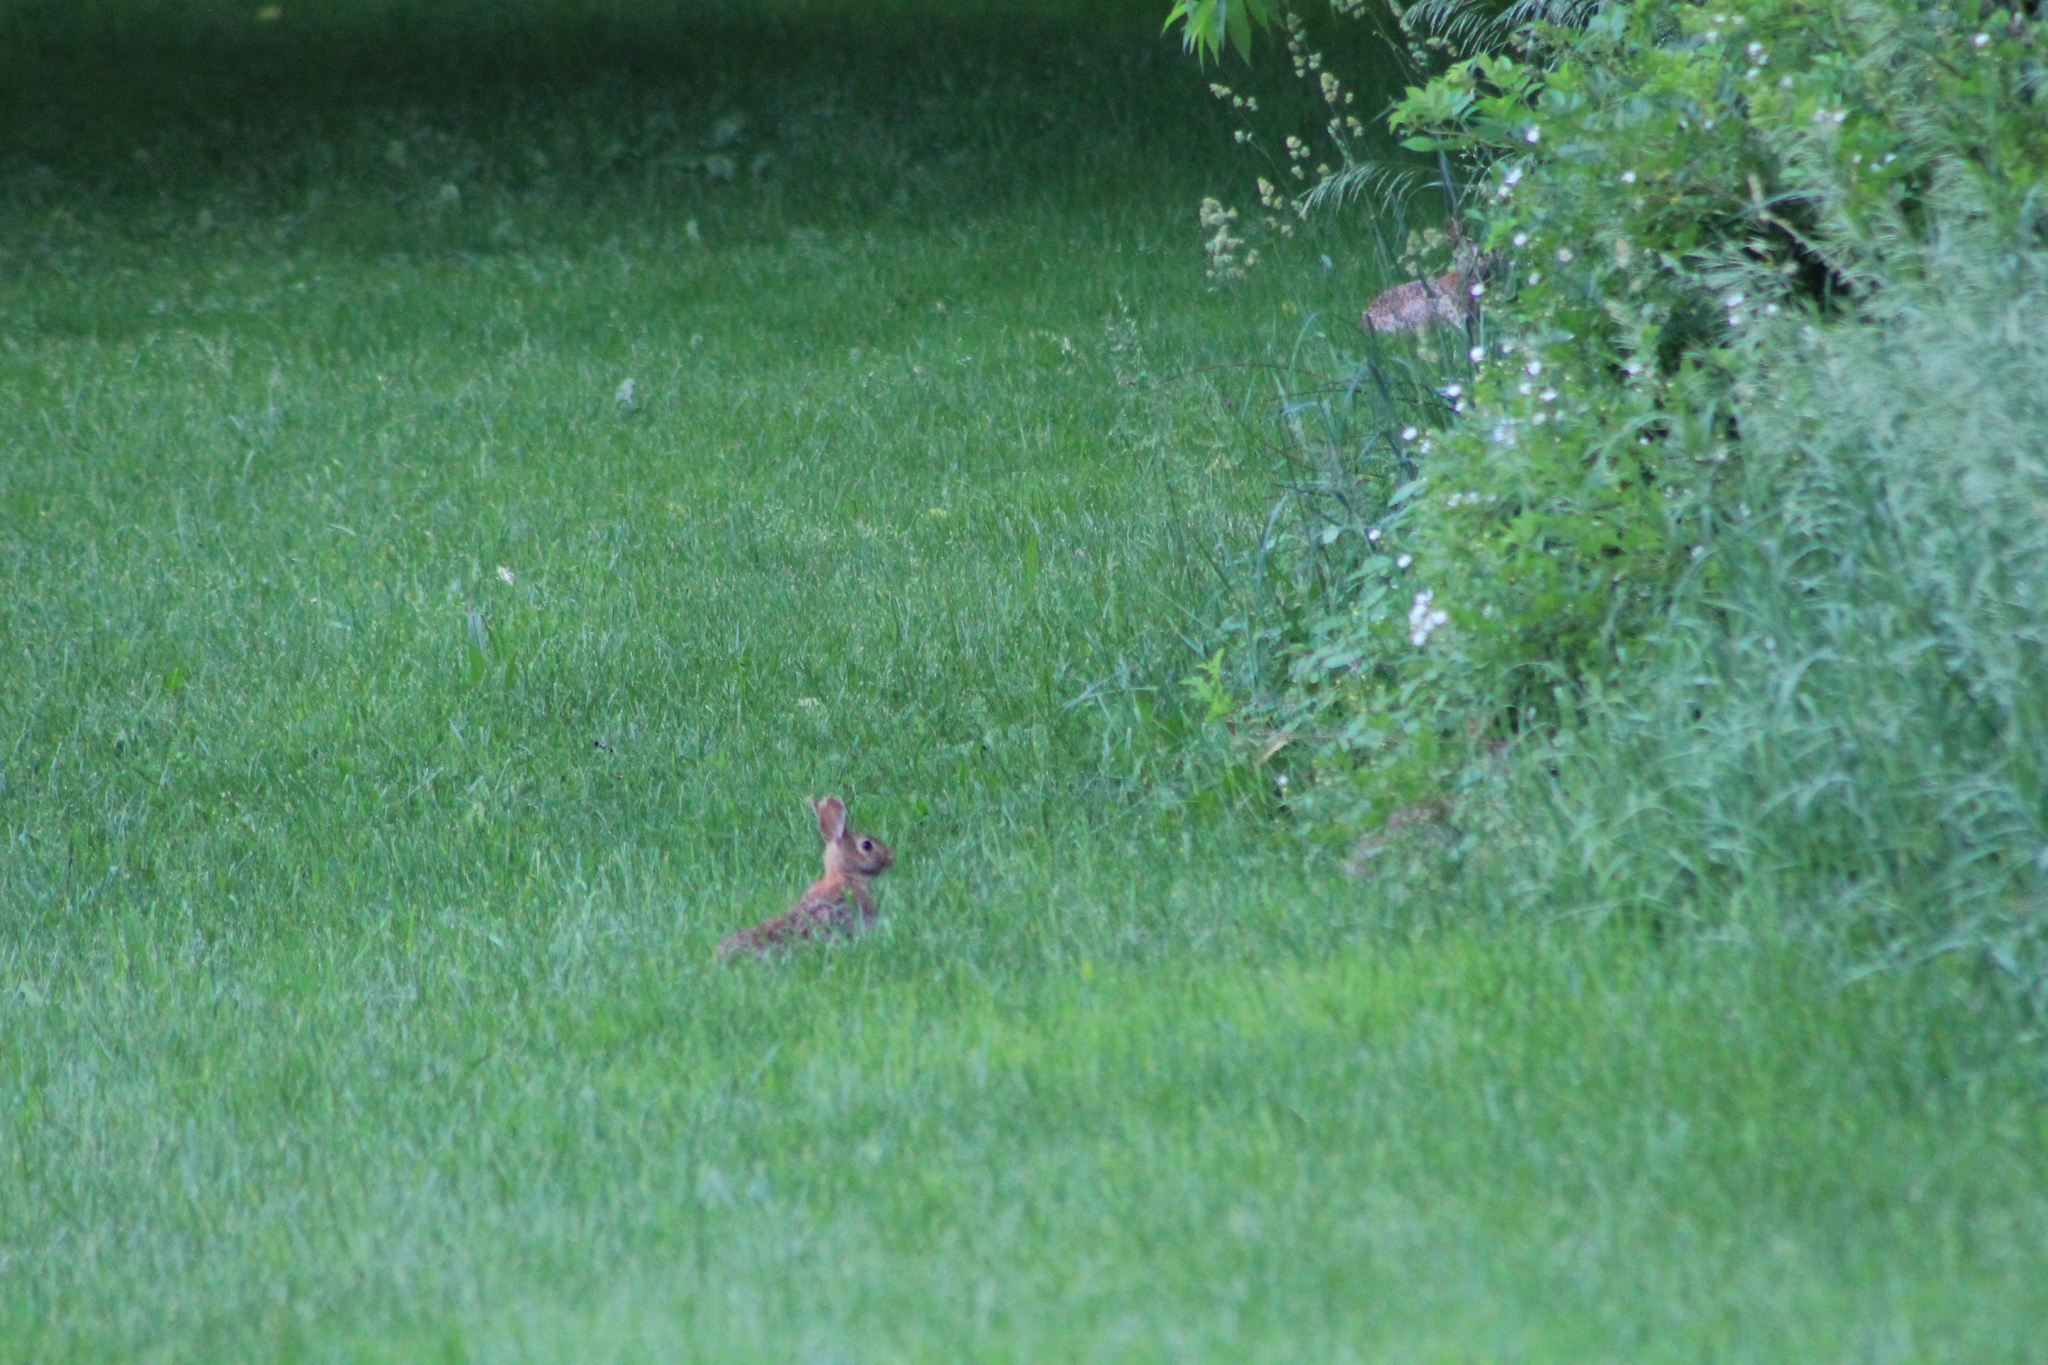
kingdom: Animalia
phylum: Chordata
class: Mammalia
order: Lagomorpha
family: Leporidae
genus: Sylvilagus
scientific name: Sylvilagus floridanus
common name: Eastern cottontail
